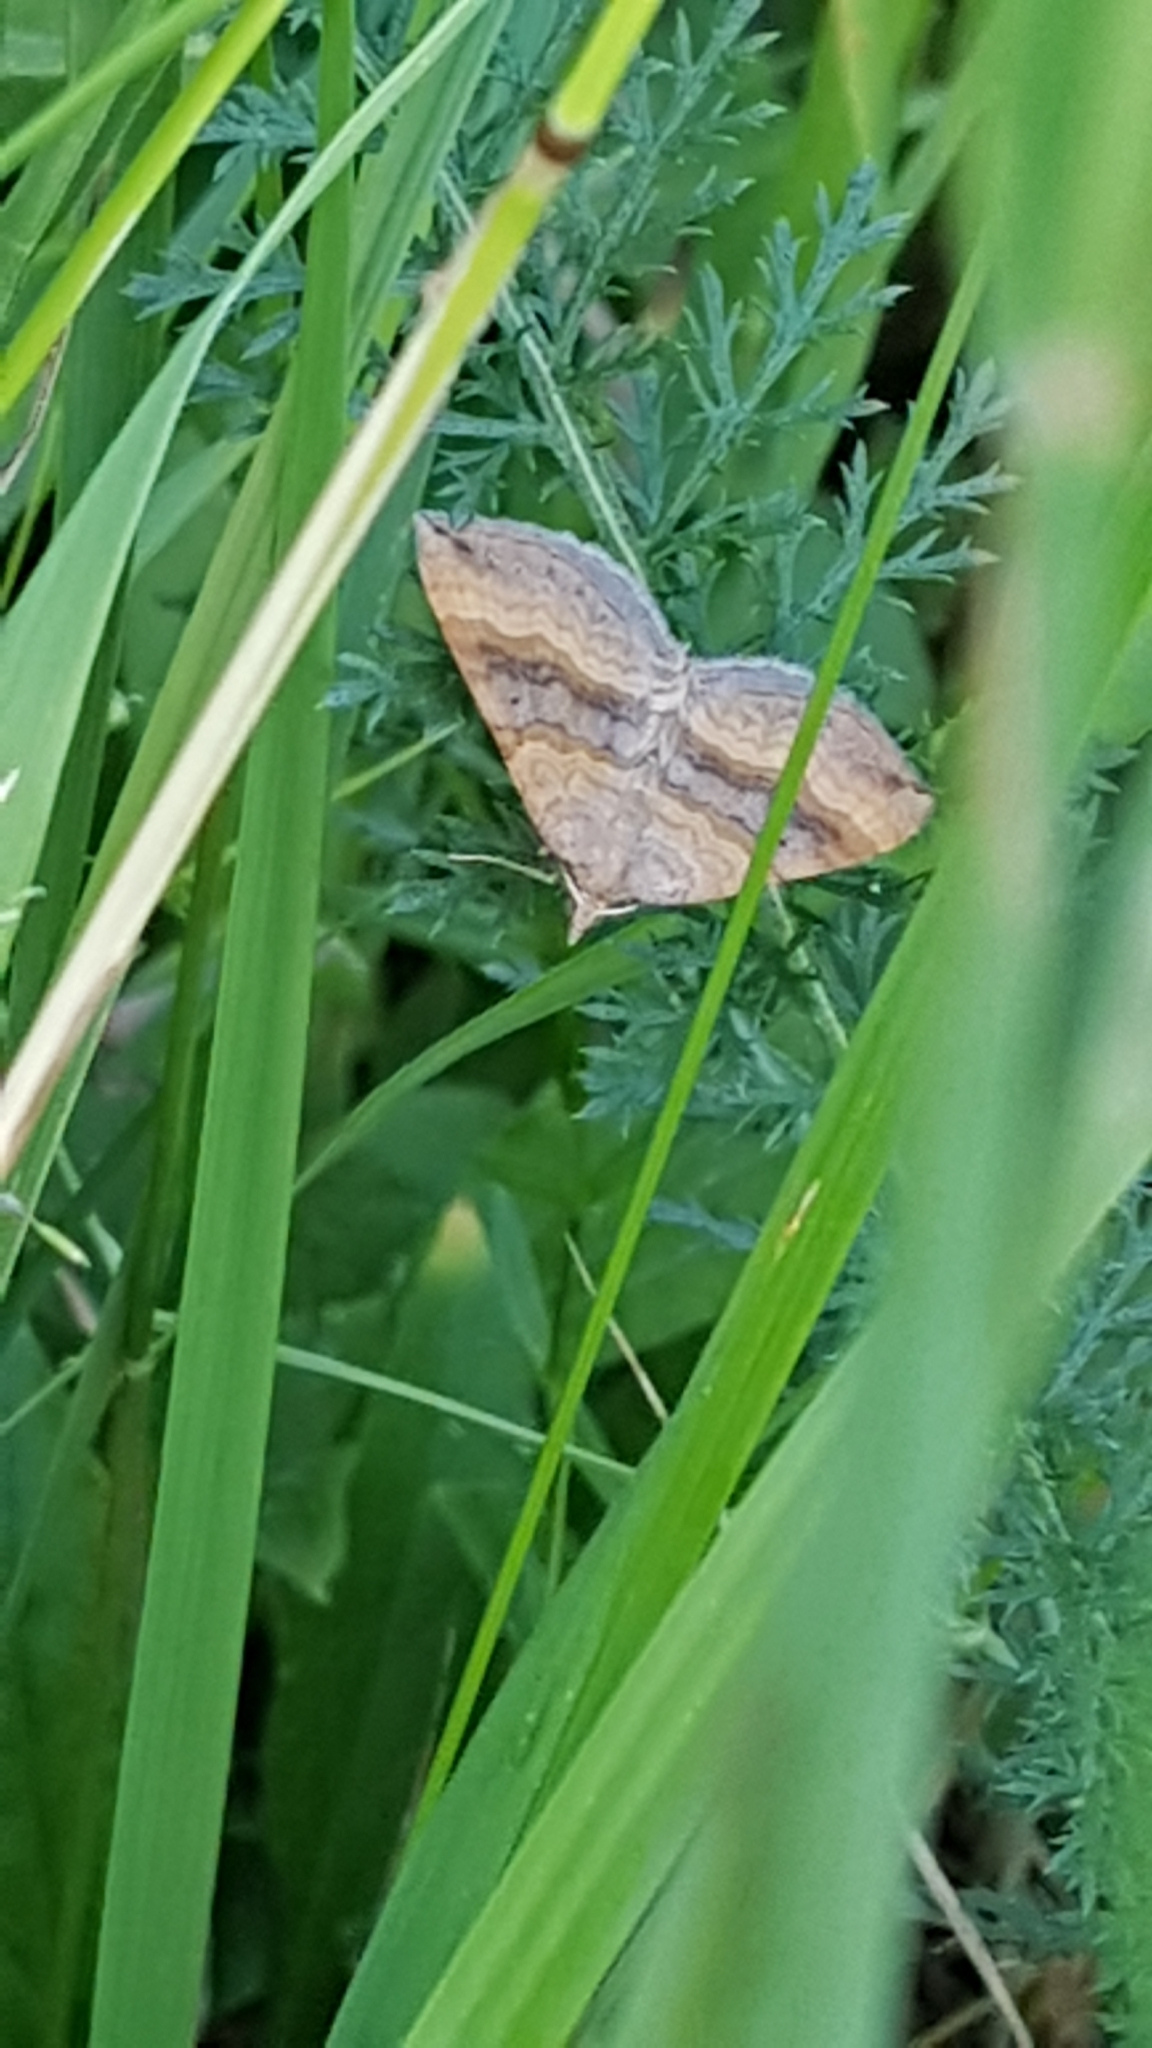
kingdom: Animalia
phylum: Arthropoda
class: Insecta
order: Lepidoptera
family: Geometridae
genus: Scotopteryx
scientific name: Scotopteryx chenopodiata
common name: Shaded broad-bar
